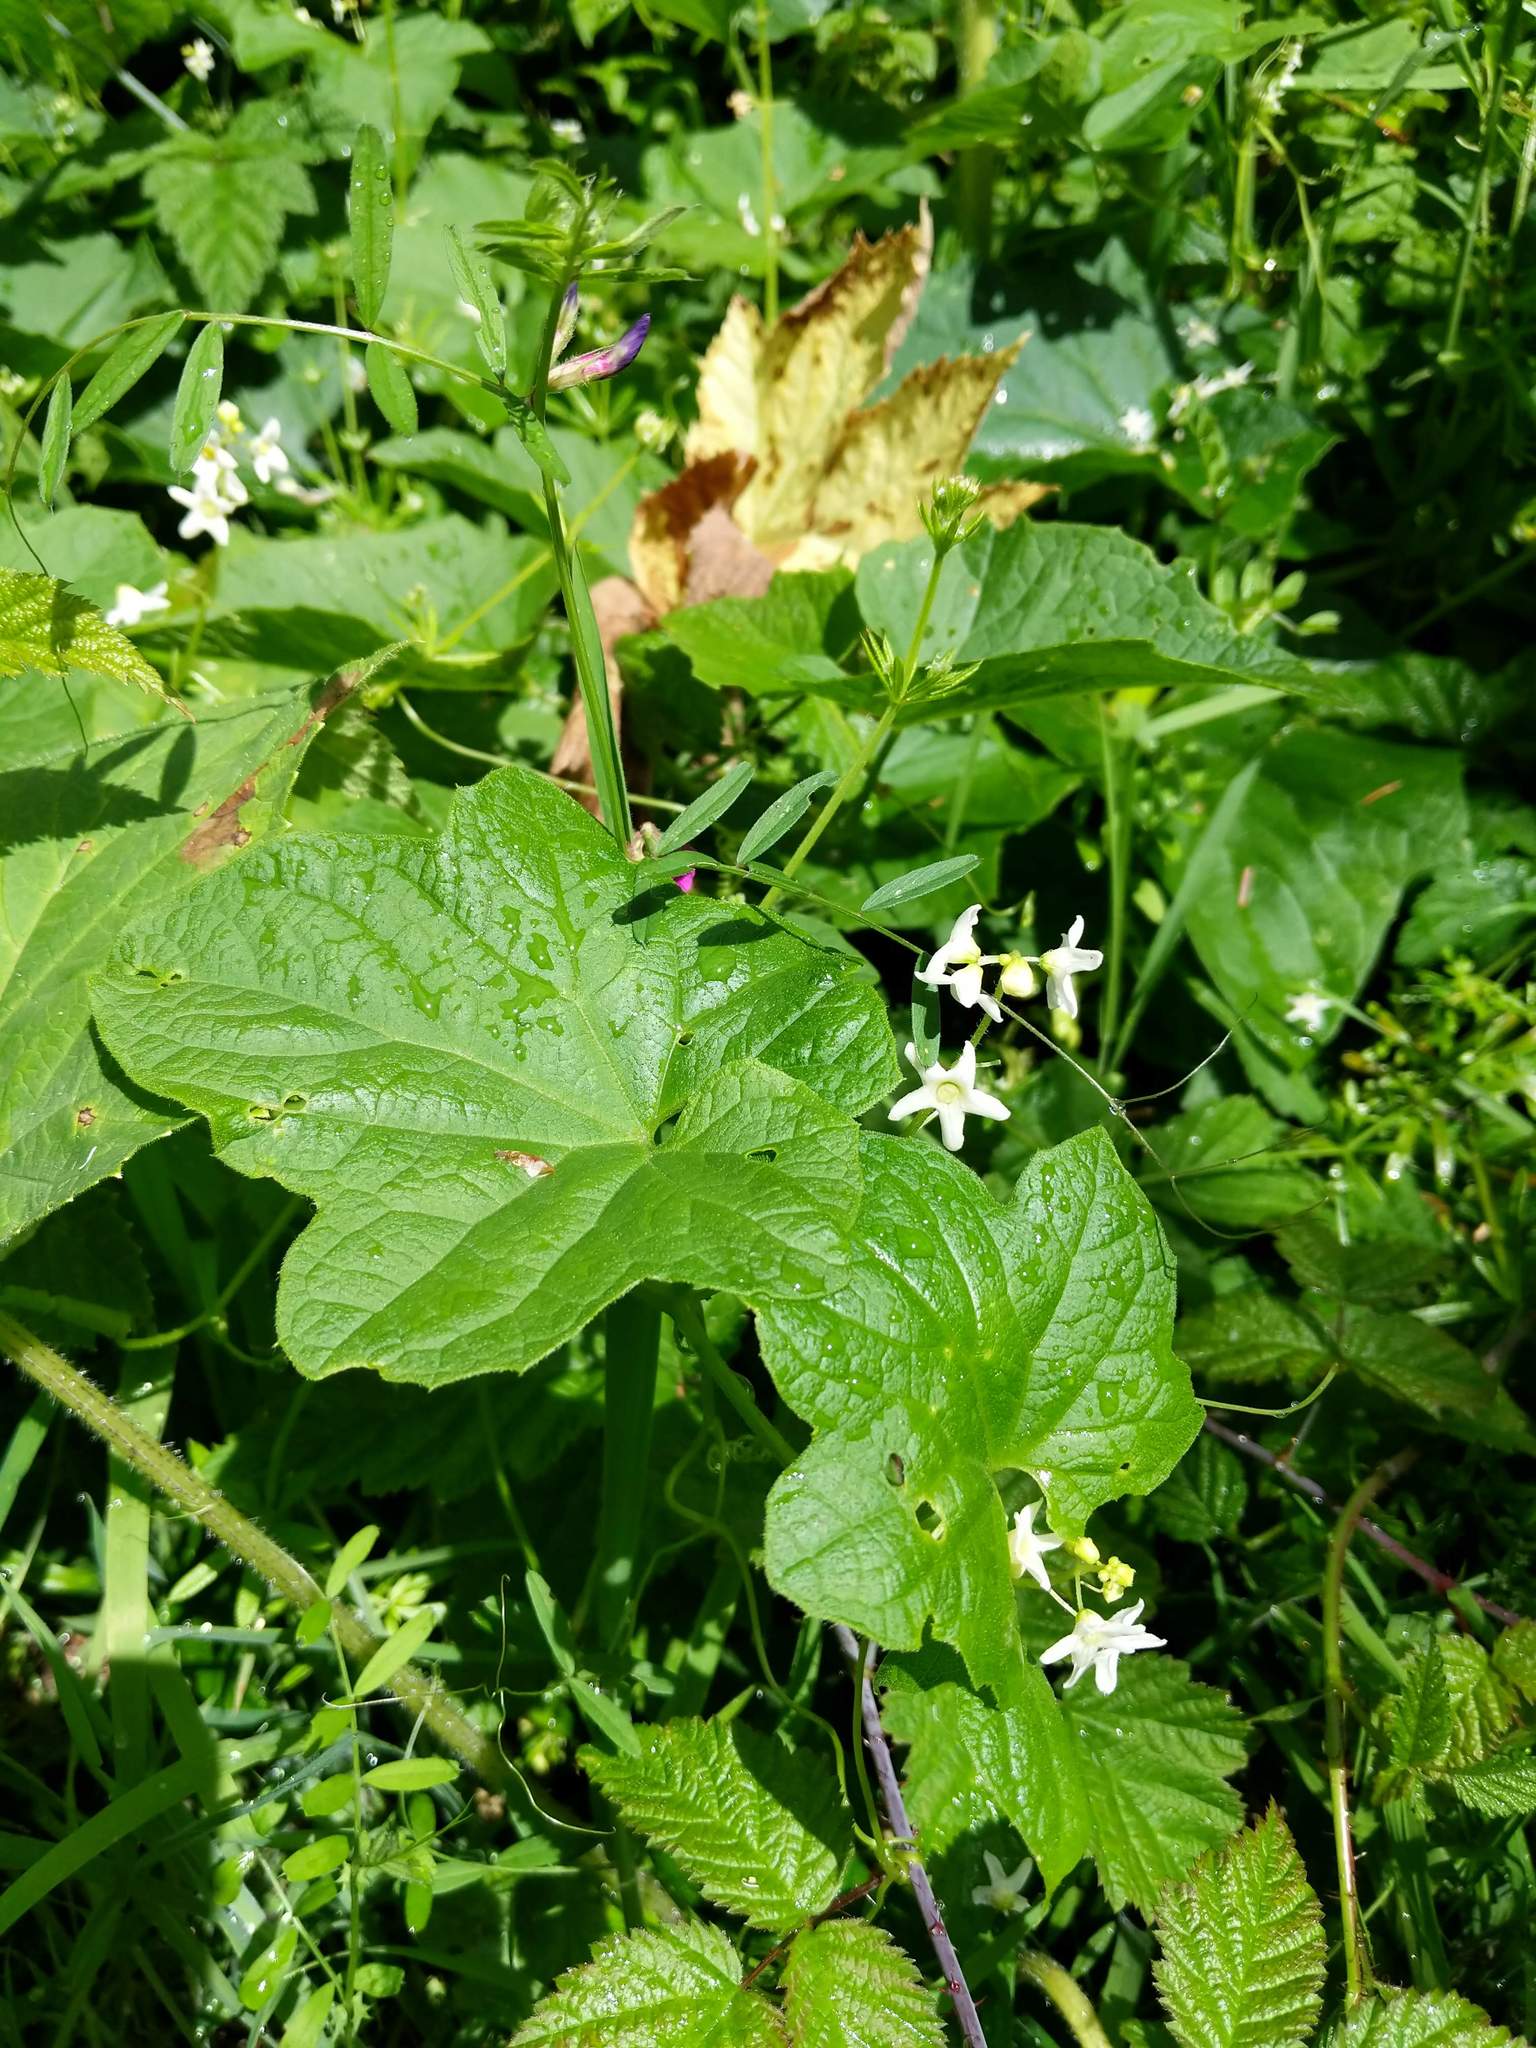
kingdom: Plantae
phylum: Tracheophyta
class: Magnoliopsida
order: Cucurbitales
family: Cucurbitaceae
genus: Marah
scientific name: Marah oregana
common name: Coastal manroot
